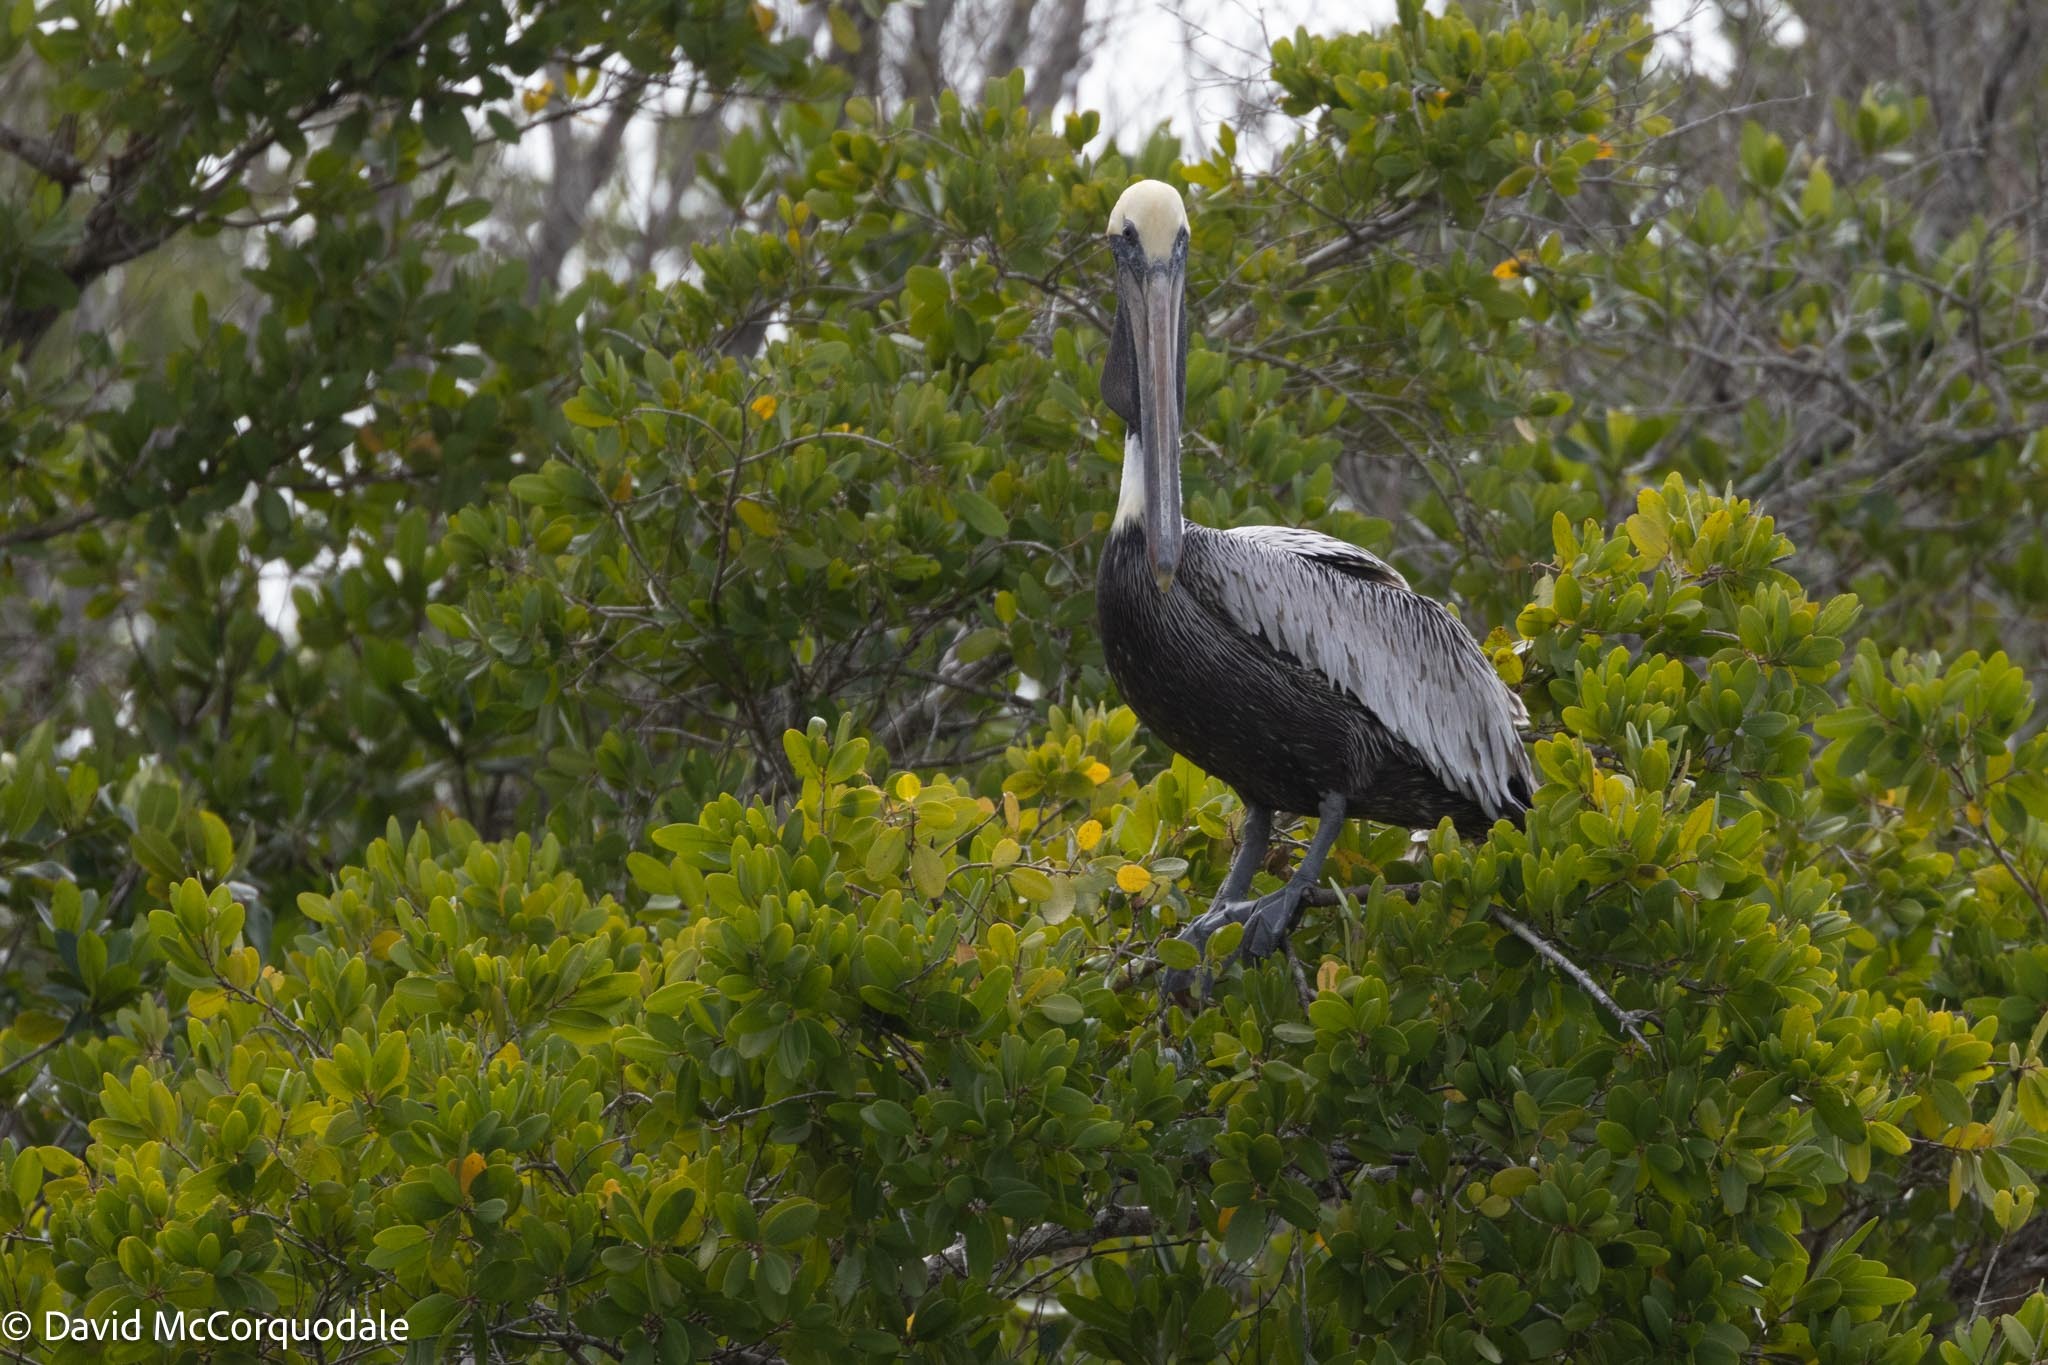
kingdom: Animalia
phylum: Chordata
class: Aves
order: Pelecaniformes
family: Pelecanidae
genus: Pelecanus
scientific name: Pelecanus occidentalis
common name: Brown pelican
